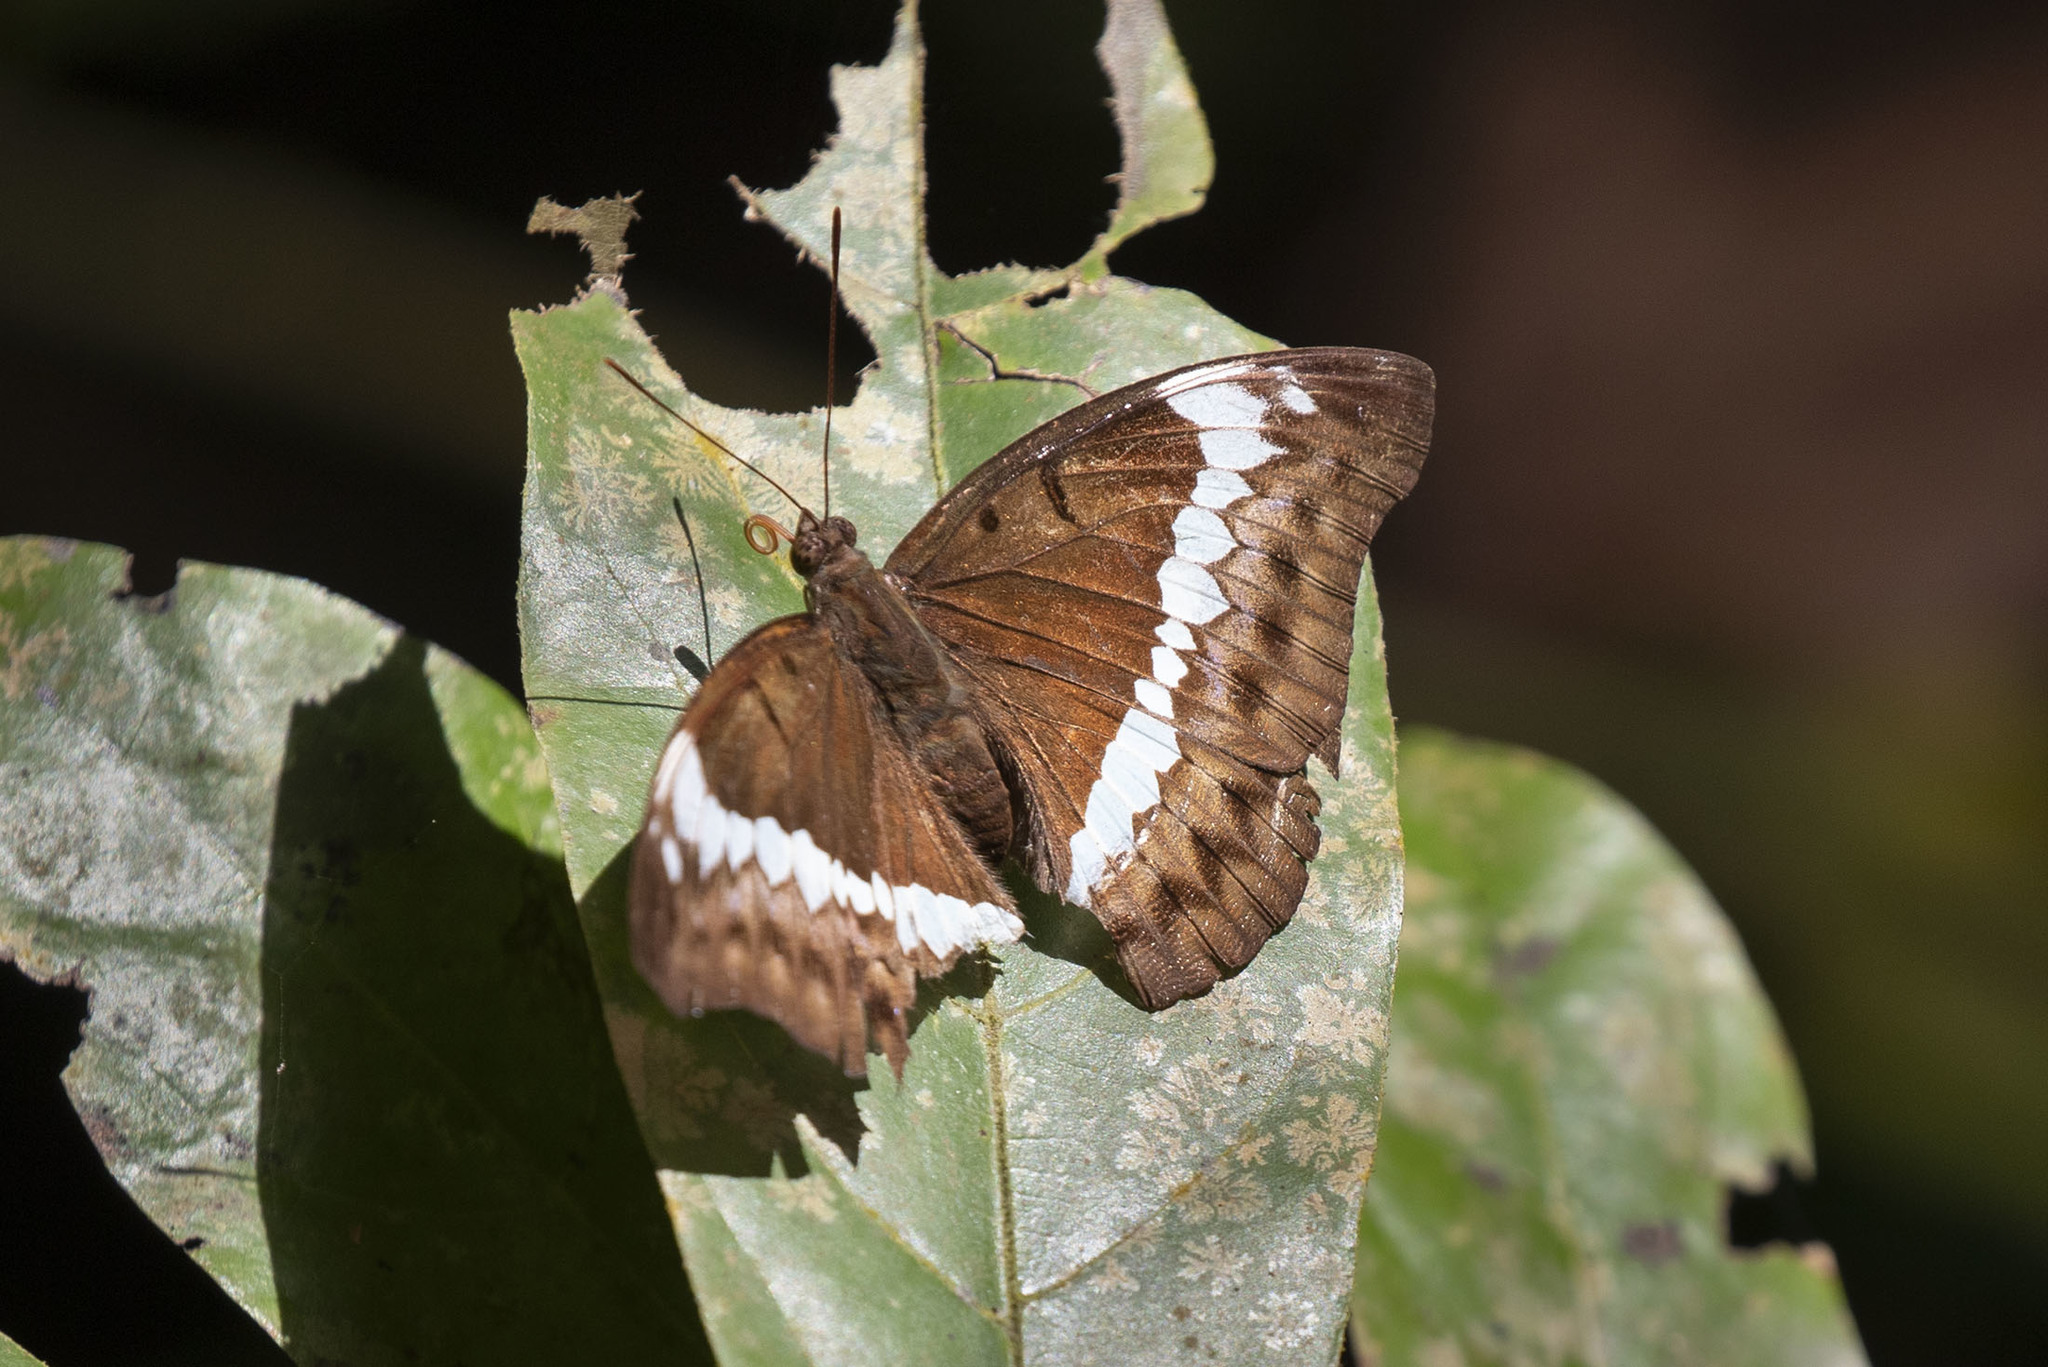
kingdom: Animalia
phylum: Arthropoda
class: Insecta
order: Lepidoptera
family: Nymphalidae
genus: Euthalia
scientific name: Euthalia Bassarona teuta
